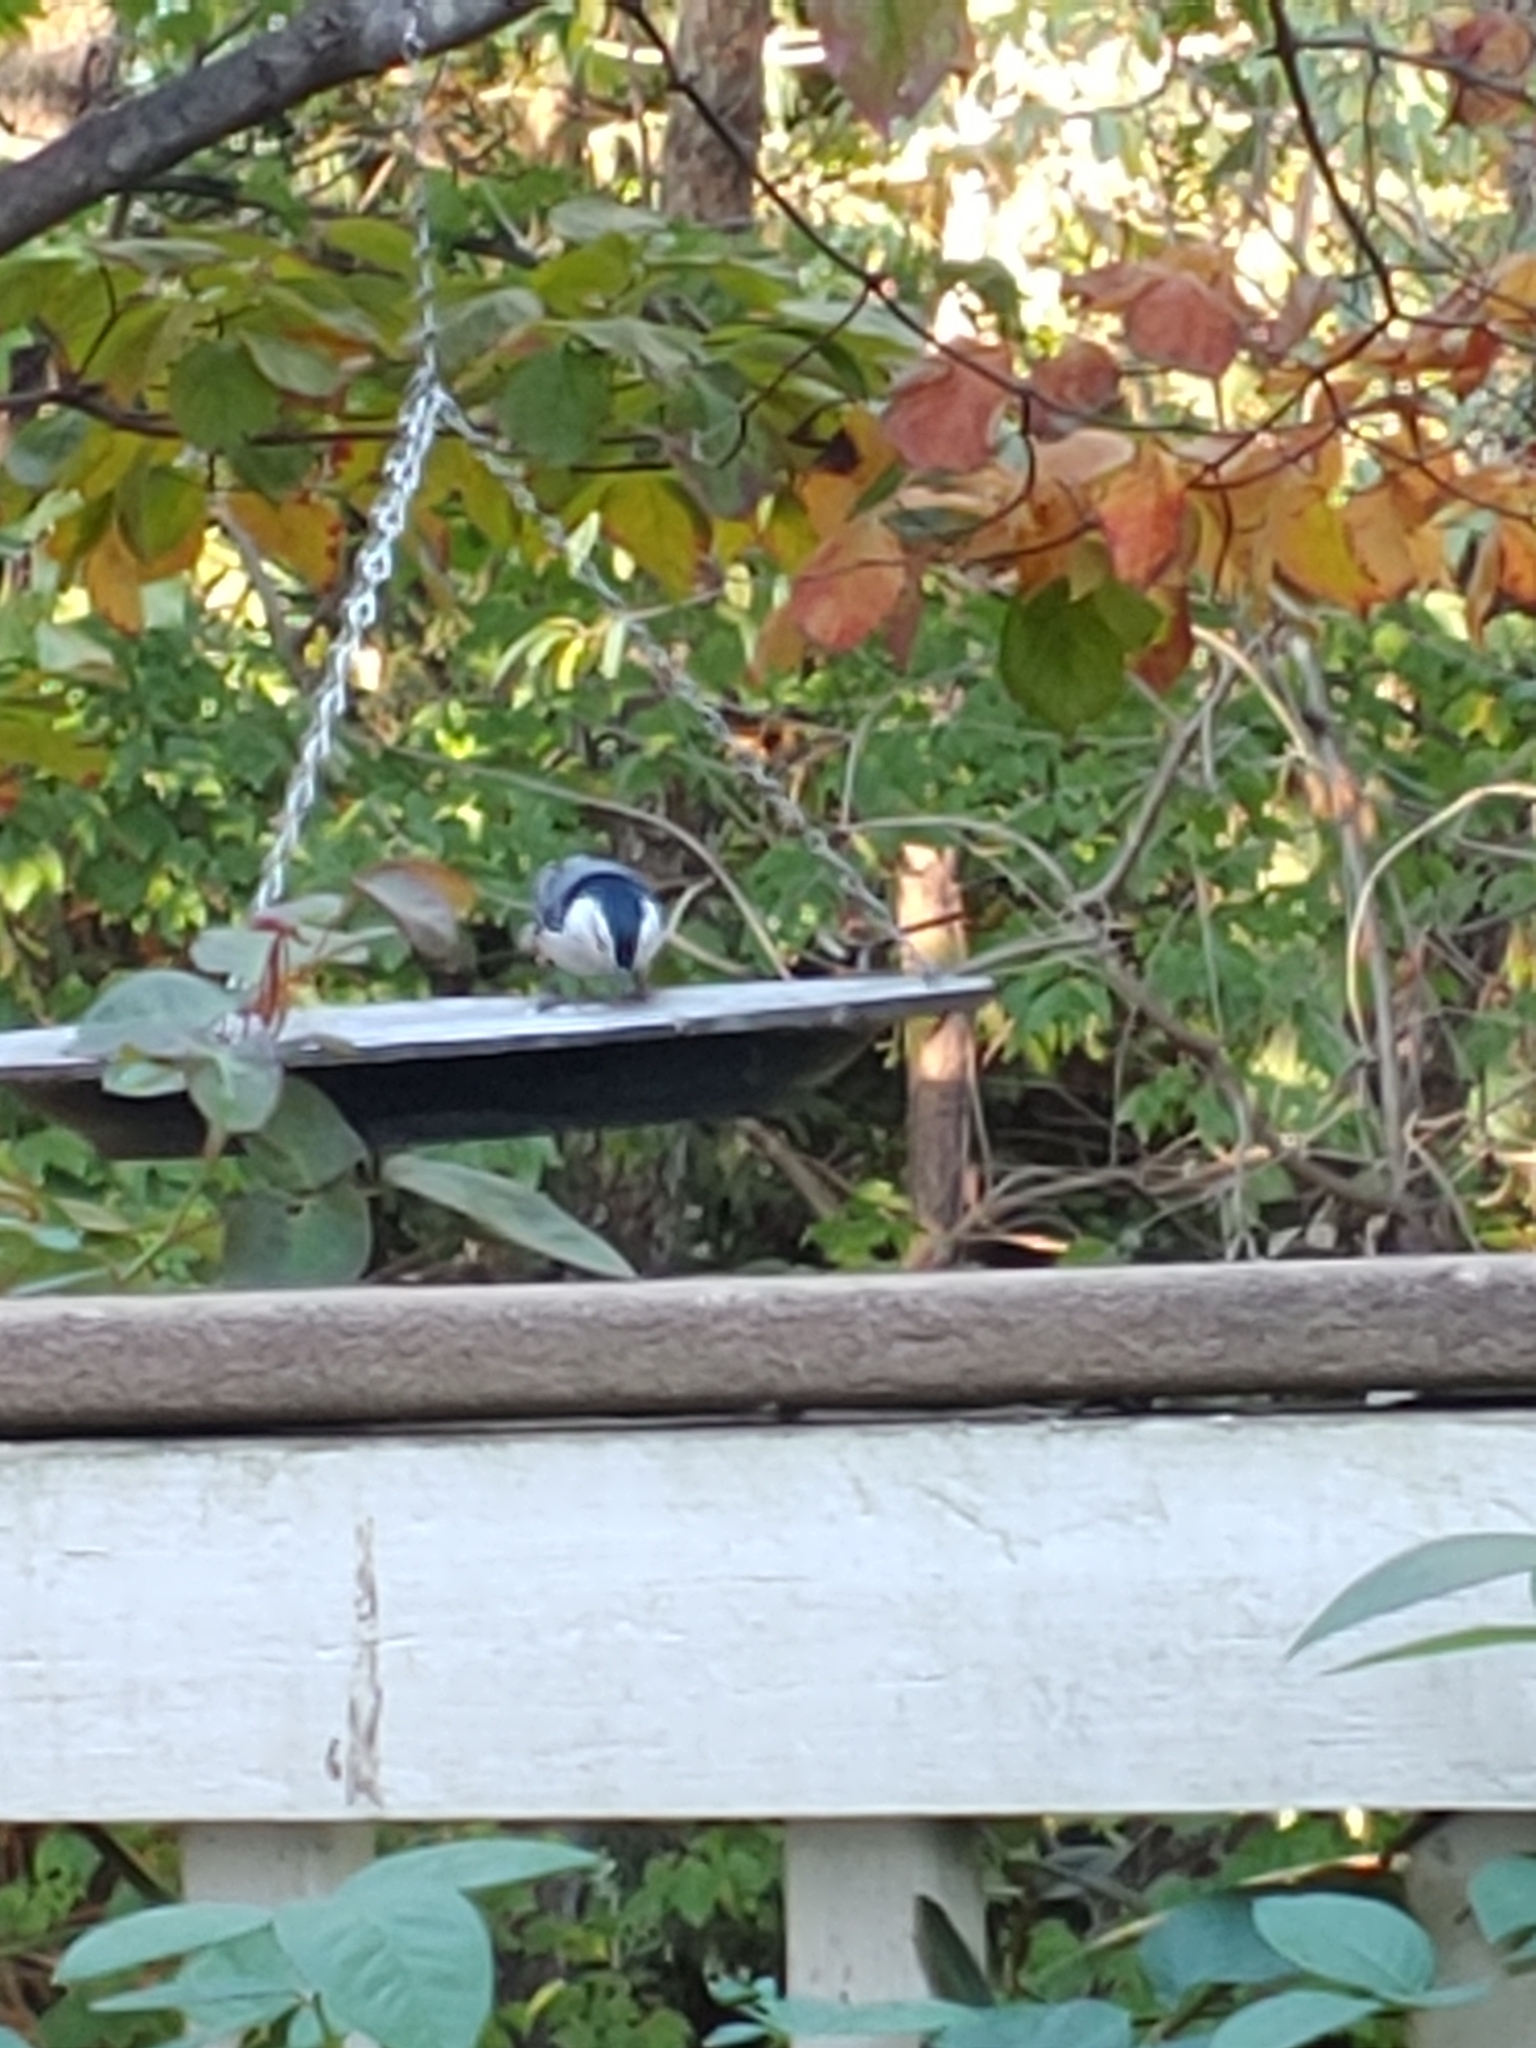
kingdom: Animalia
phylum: Chordata
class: Aves
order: Passeriformes
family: Sittidae
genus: Sitta
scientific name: Sitta carolinensis
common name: White-breasted nuthatch
